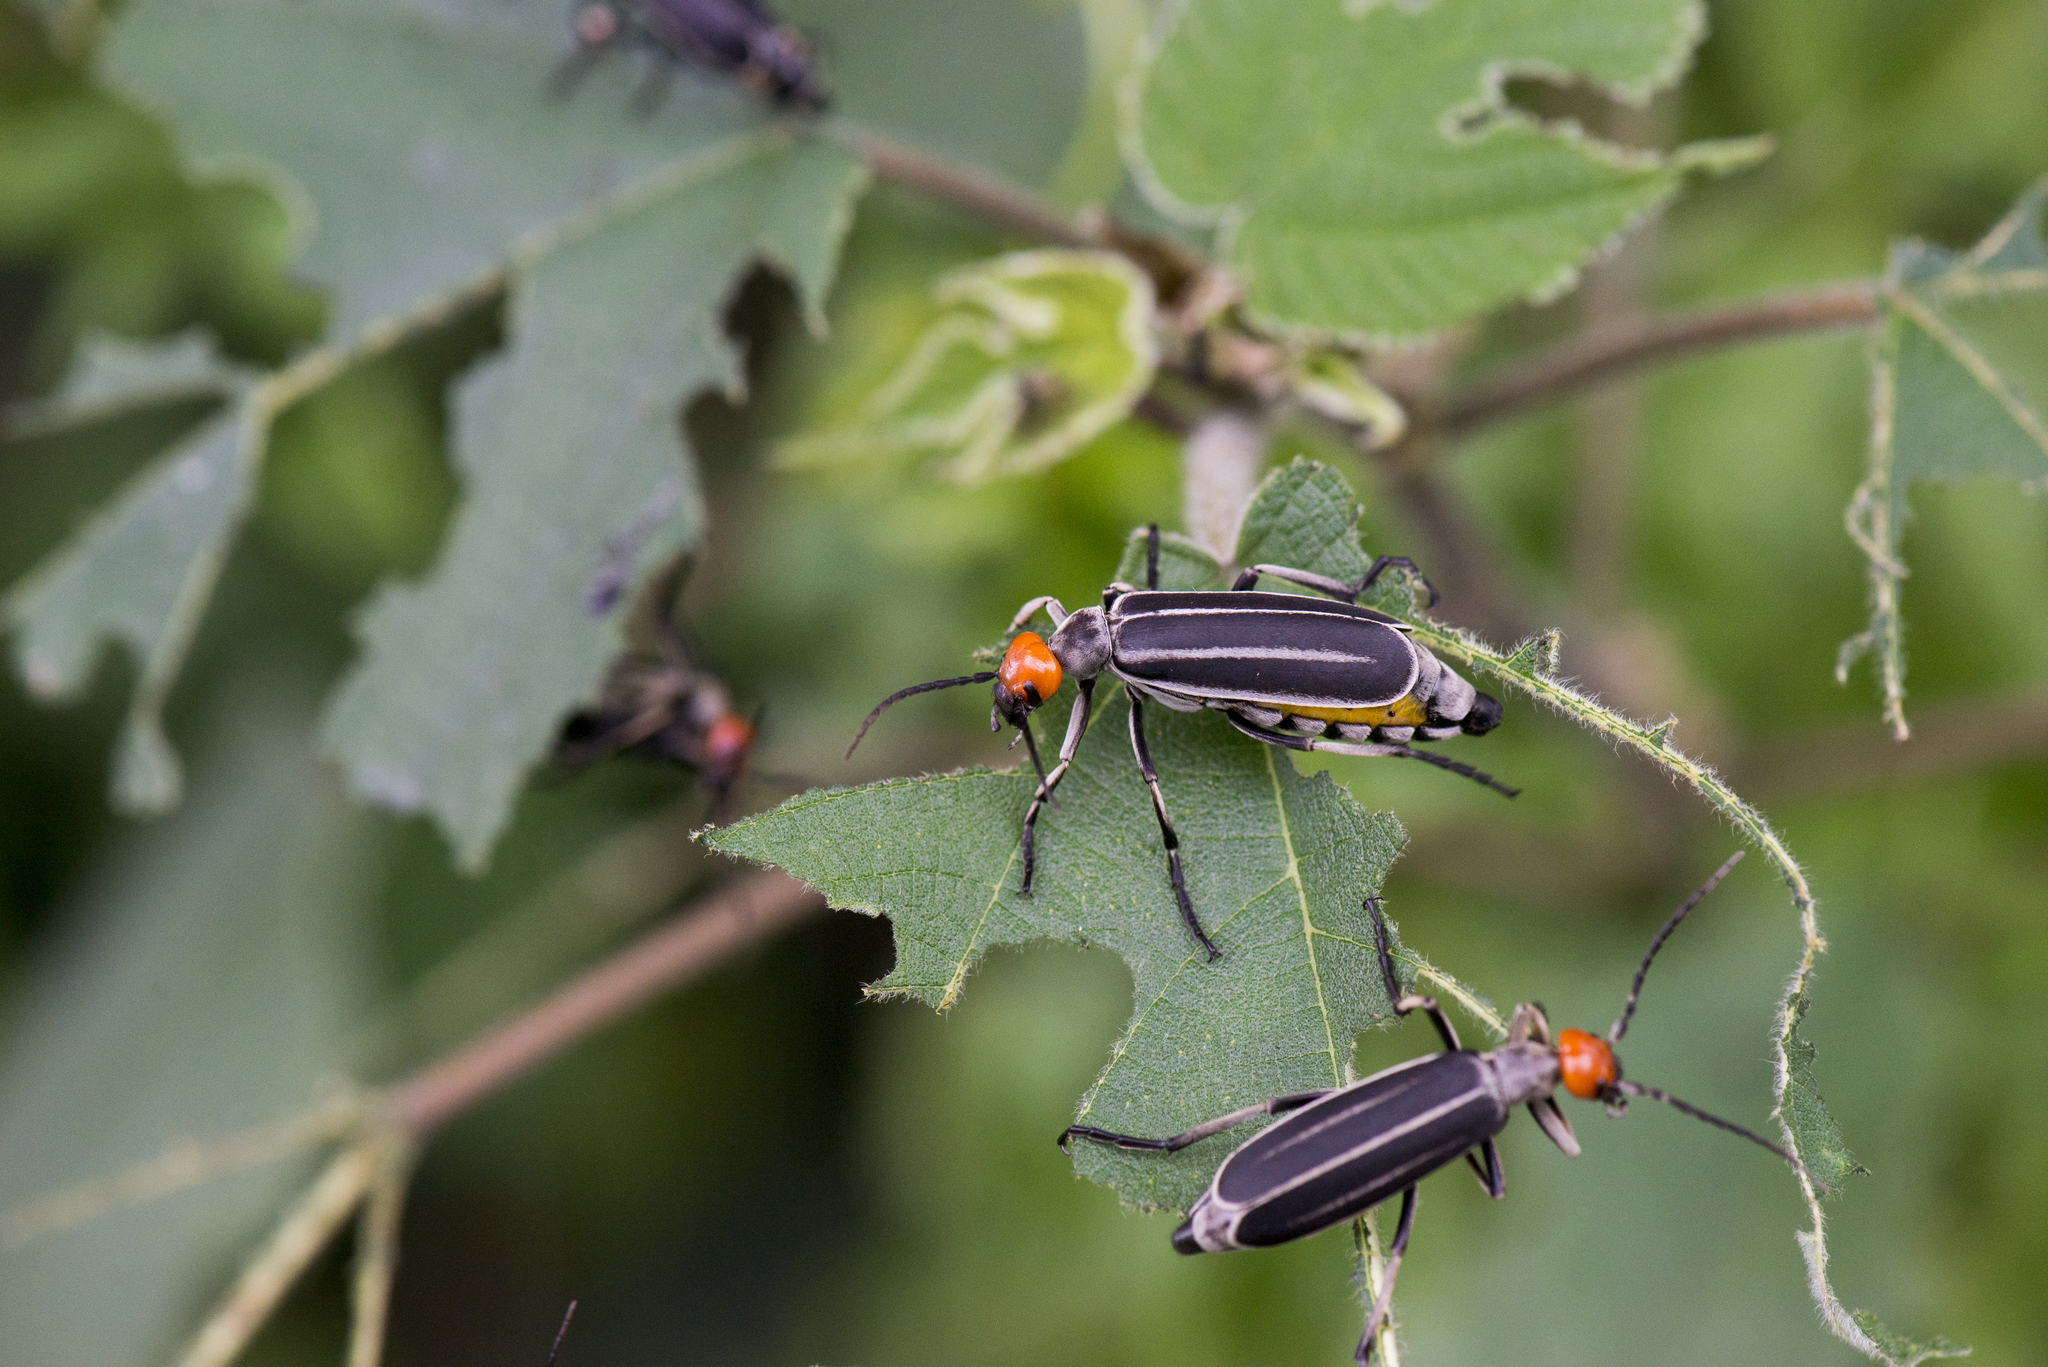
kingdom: Animalia
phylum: Arthropoda
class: Insecta
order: Coleoptera
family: Meloidae
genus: Epicauta
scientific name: Epicauta waterhousei
